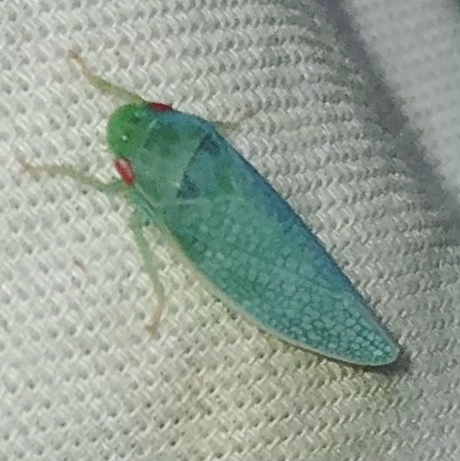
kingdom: Animalia
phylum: Arthropoda
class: Insecta
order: Hemiptera
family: Cicadellidae
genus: Gyponana
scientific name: Gyponana procera
